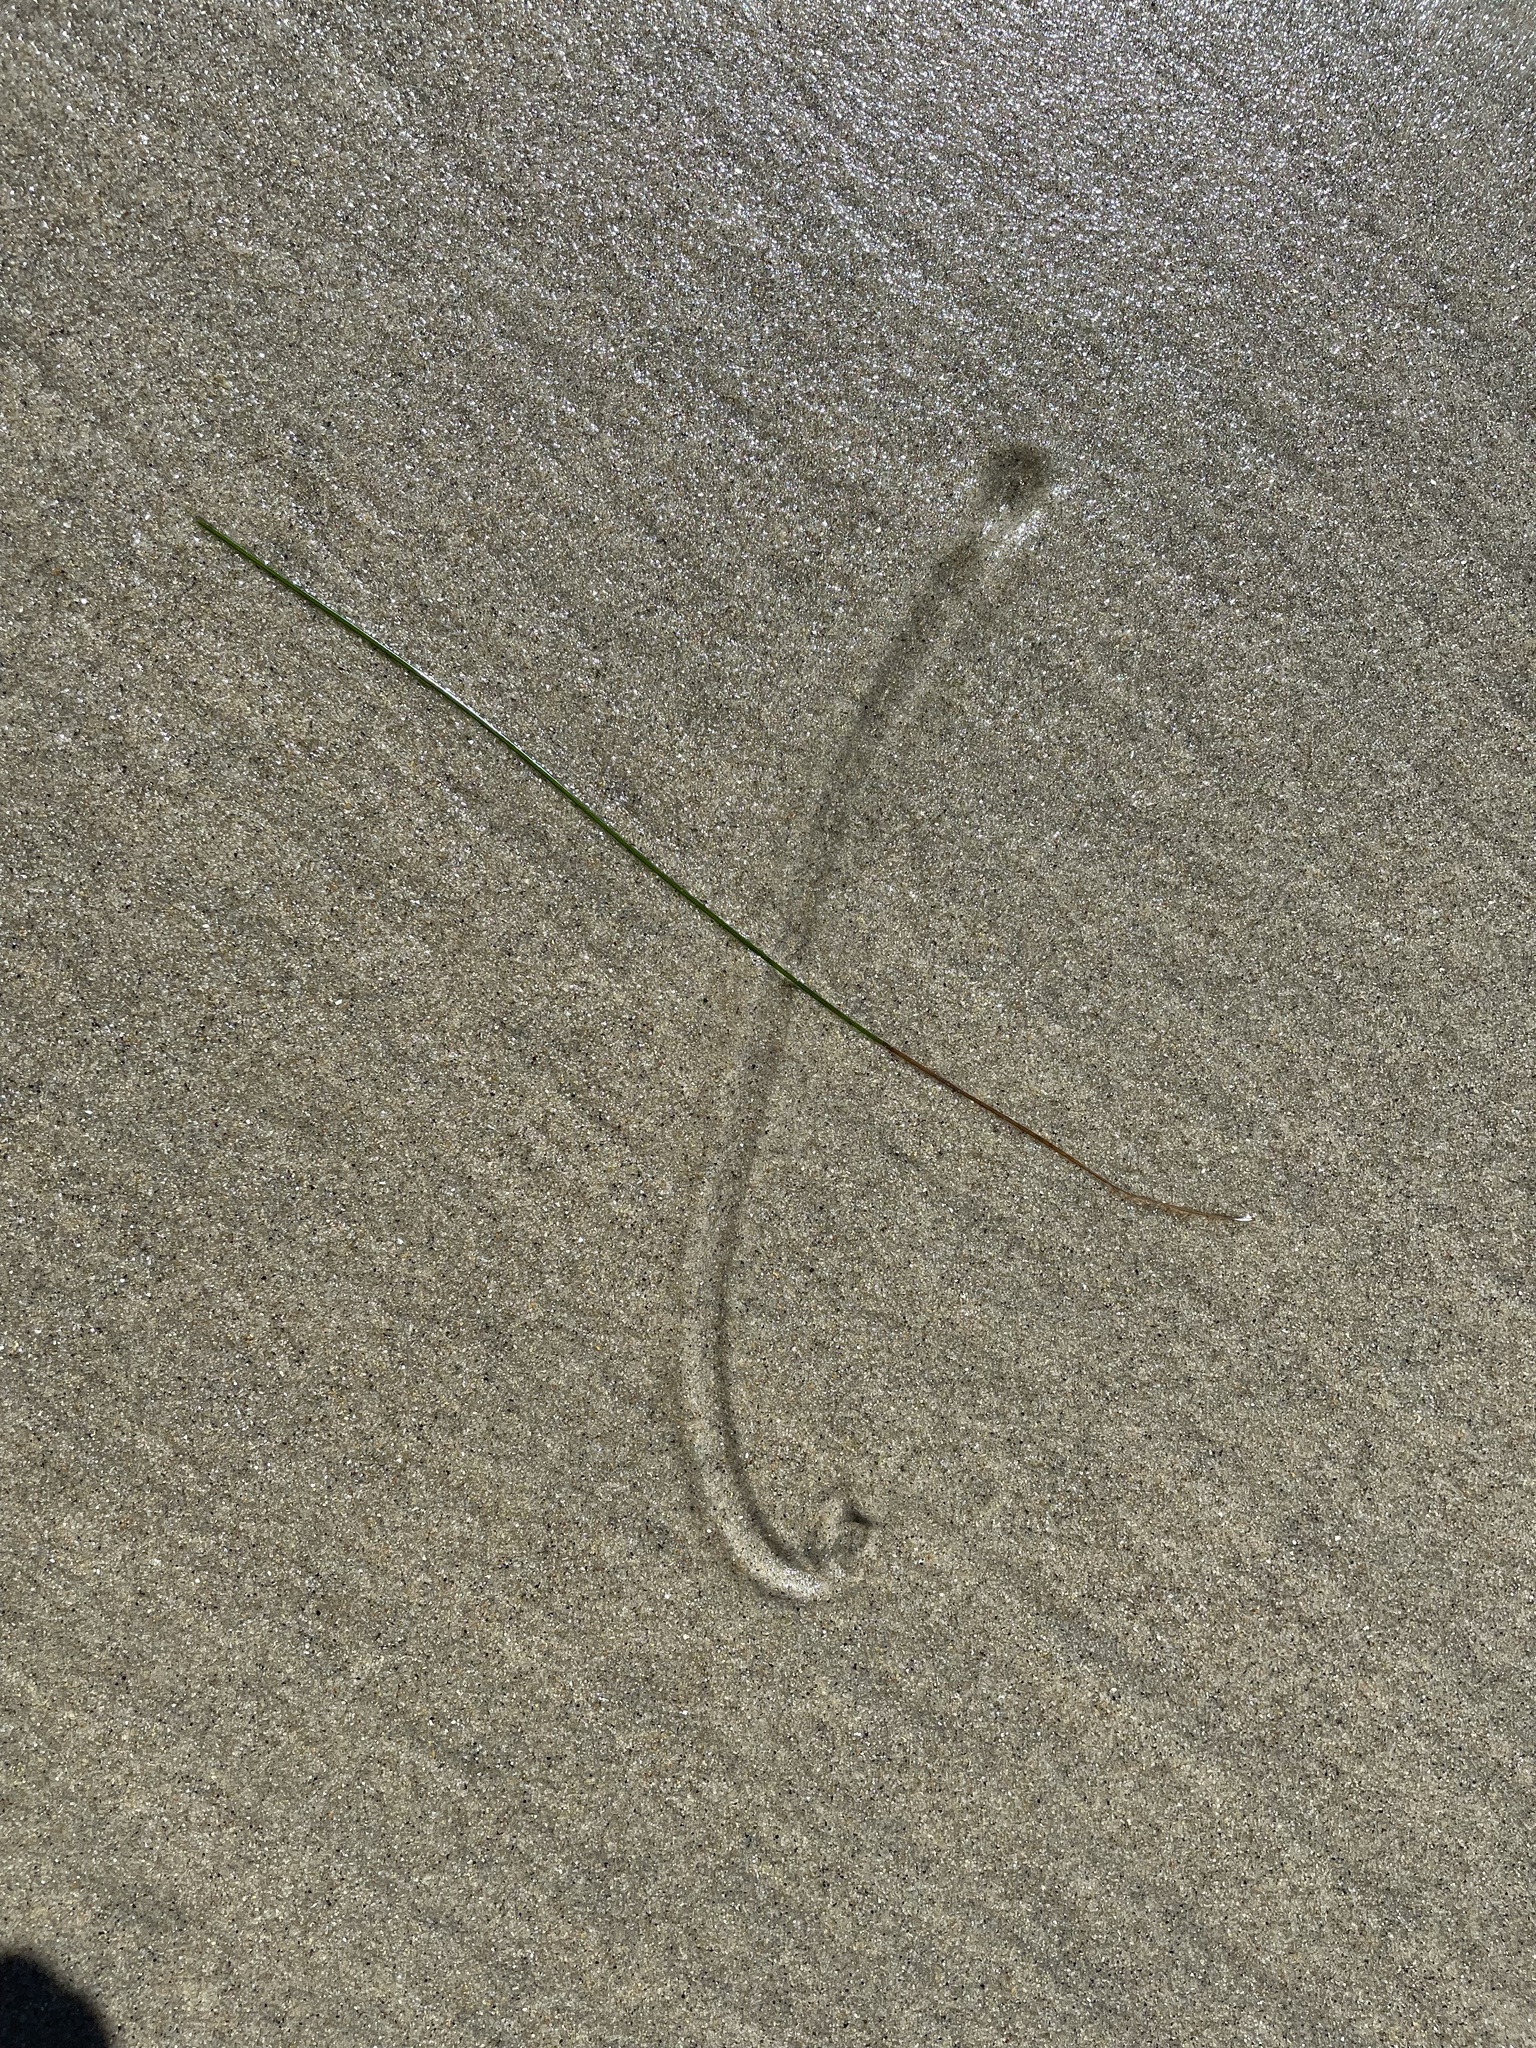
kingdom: Animalia
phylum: Mollusca
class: Bivalvia
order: Cardiida
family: Donacidae
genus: Donax
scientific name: Donax gouldii
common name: Gould beanclam
